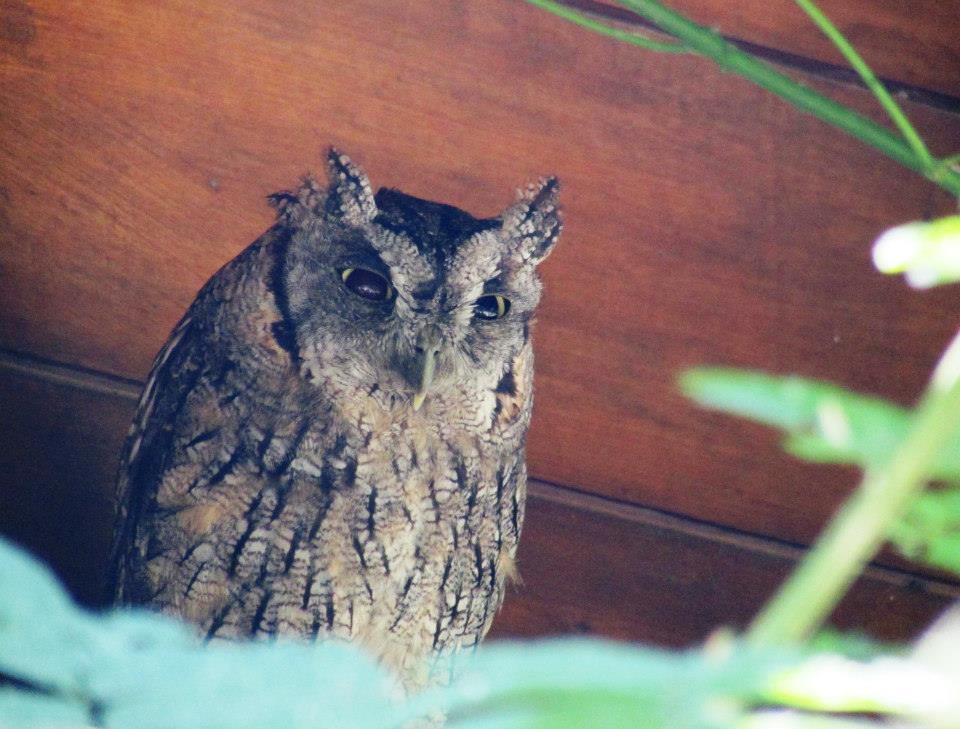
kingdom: Animalia
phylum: Chordata
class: Aves
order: Strigiformes
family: Strigidae
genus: Megascops
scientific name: Megascops choliba
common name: Tropical screech-owl
